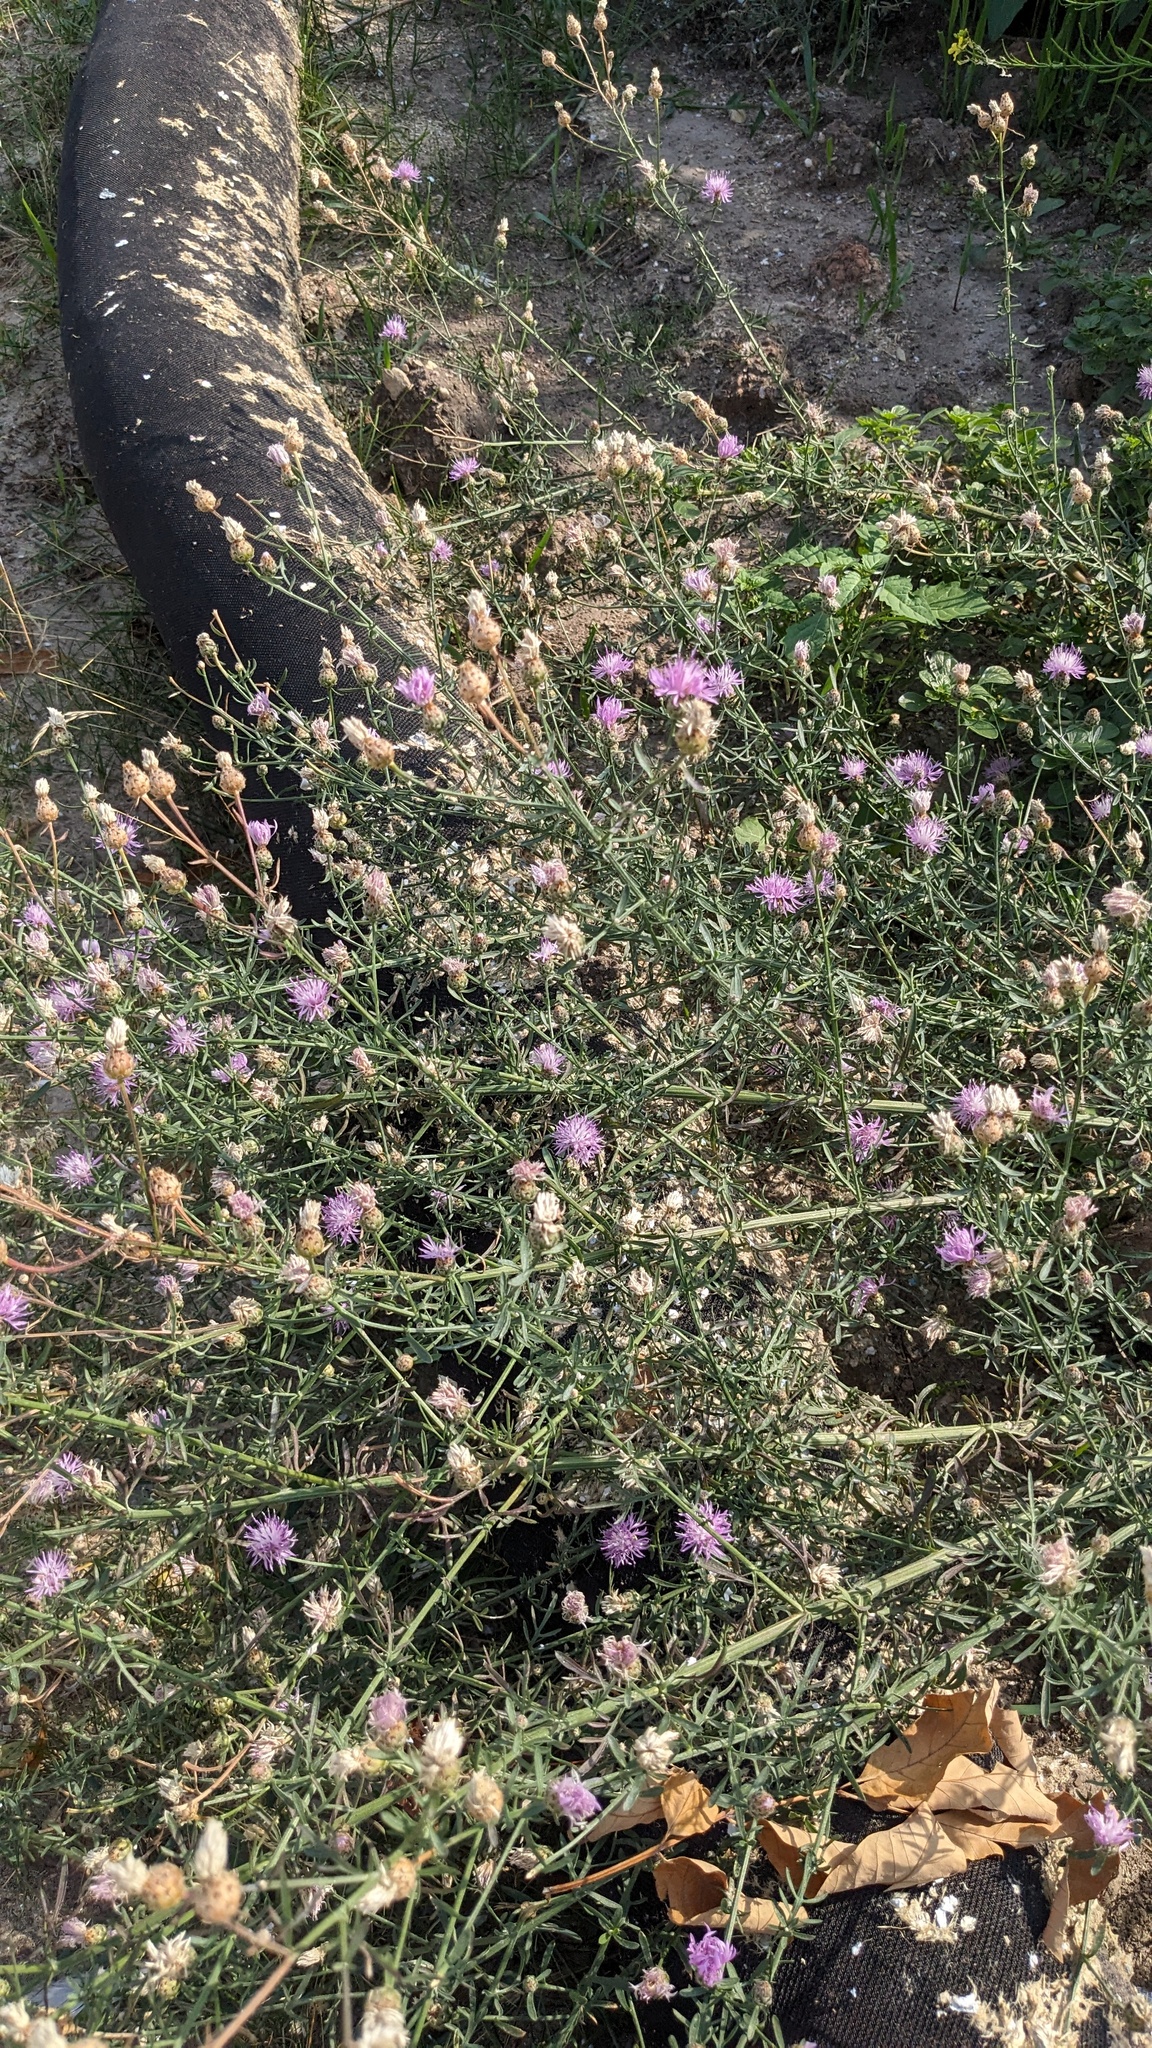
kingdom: Plantae
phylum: Tracheophyta
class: Magnoliopsida
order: Asterales
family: Asteraceae
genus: Centaurea
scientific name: Centaurea stoebe
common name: Spotted knapweed
